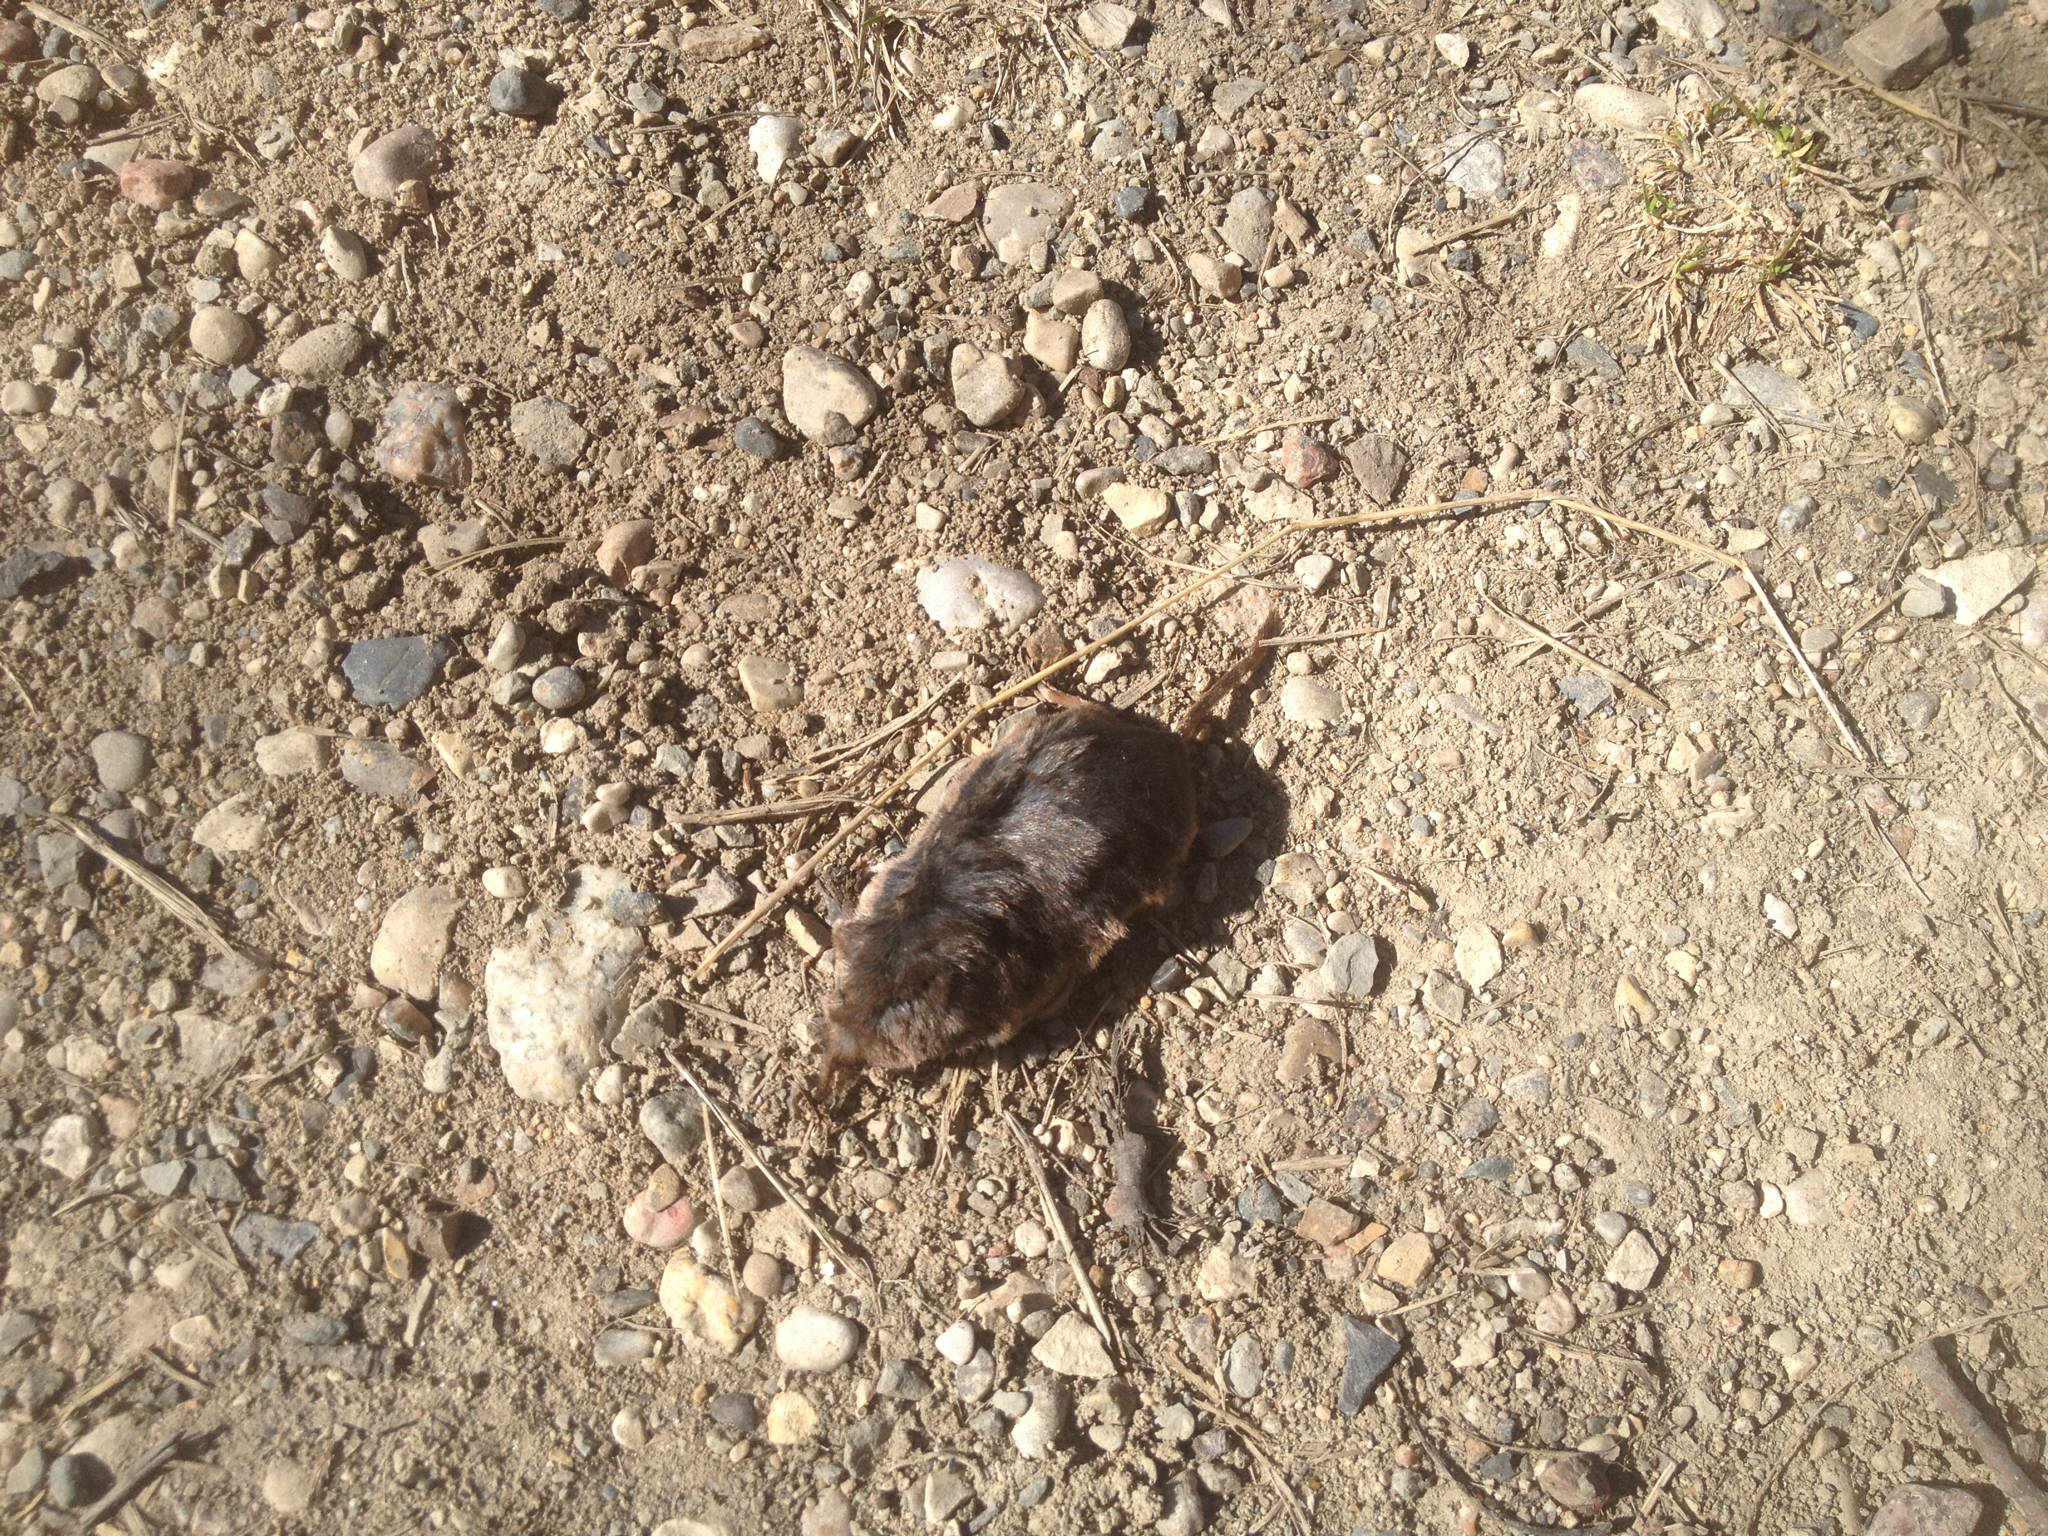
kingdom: Animalia
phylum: Chordata
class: Mammalia
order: Soricomorpha
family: Soricidae
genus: Sorex
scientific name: Sorex arcticus
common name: Arctic shrew
